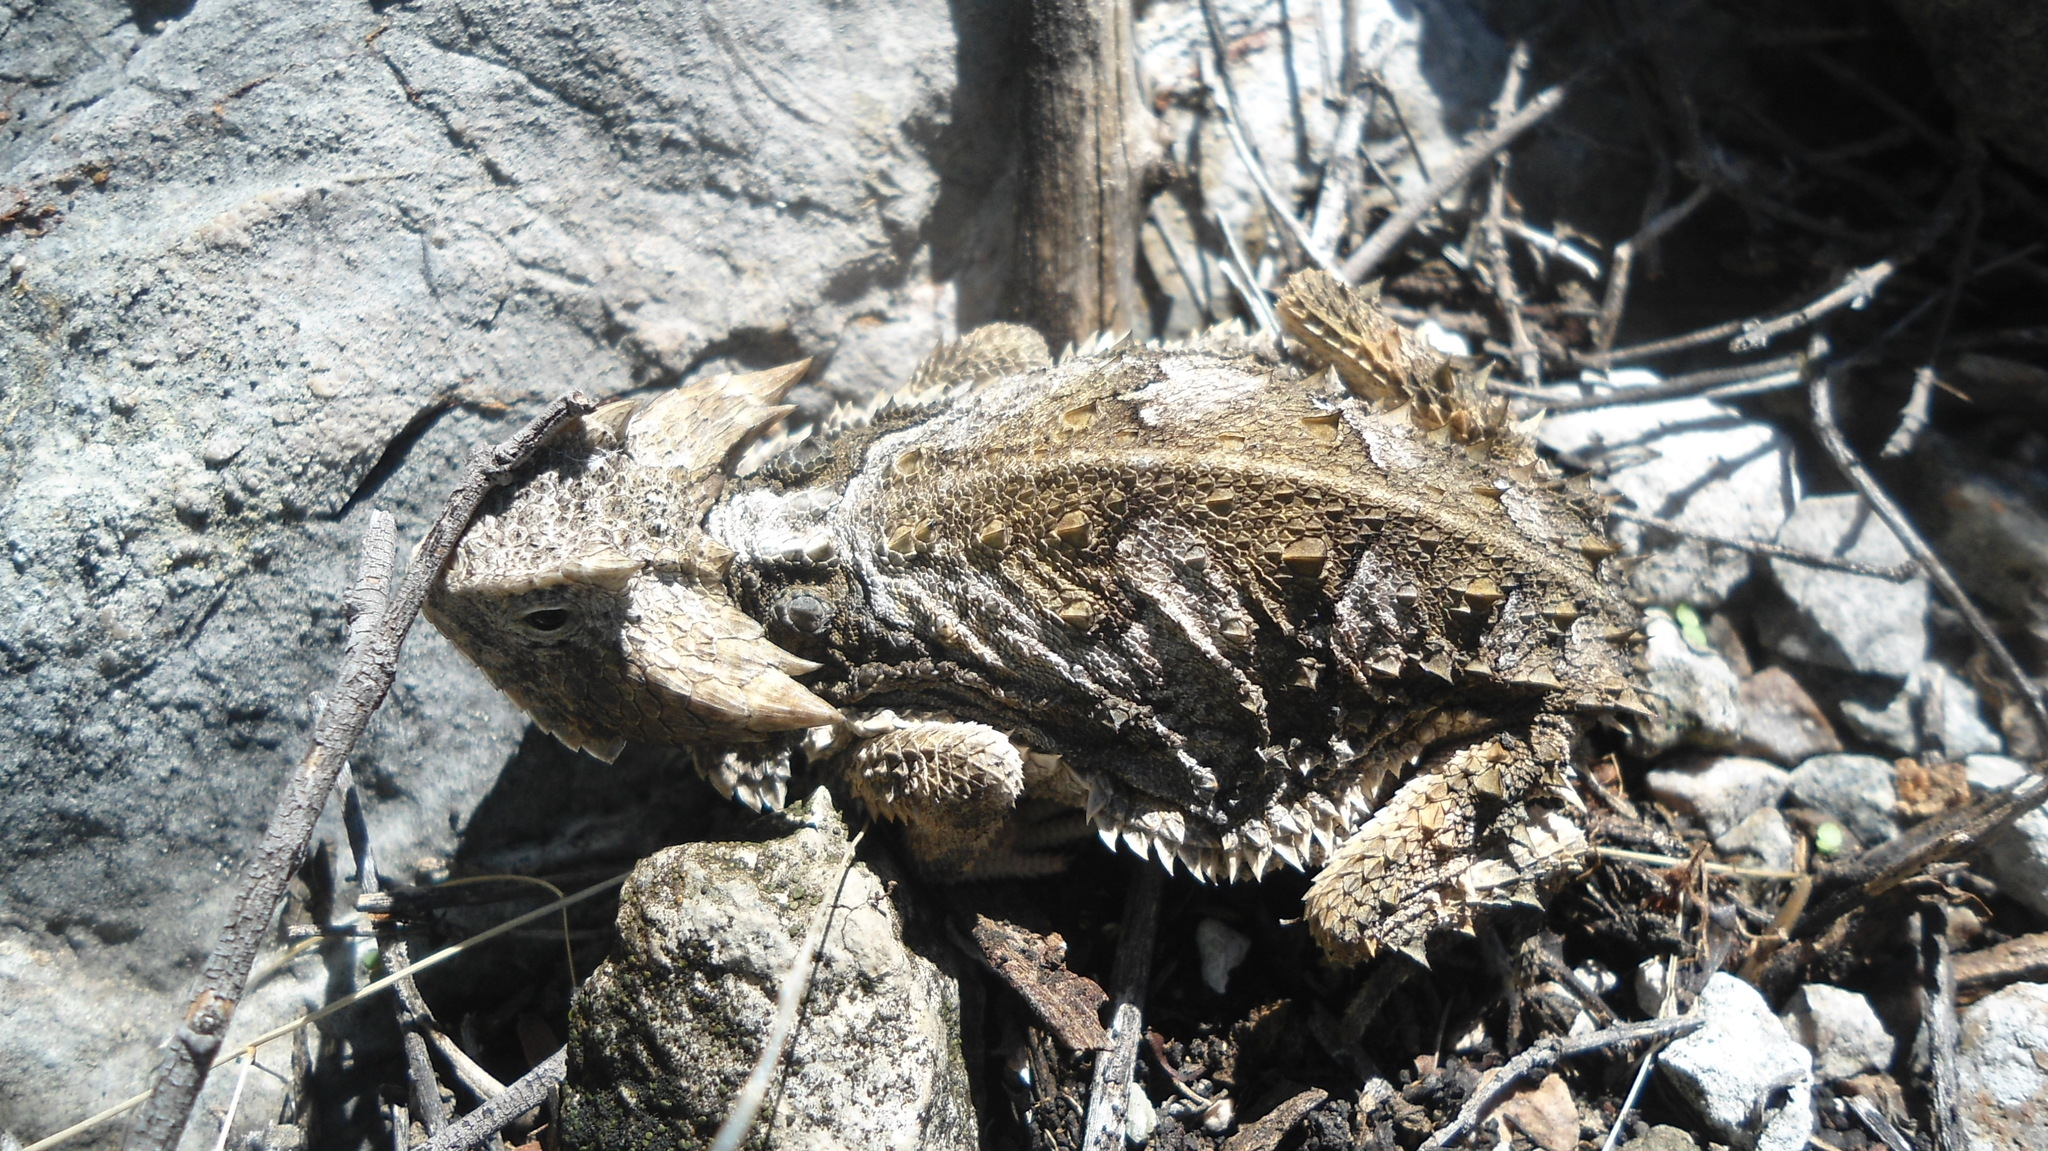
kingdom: Animalia
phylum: Chordata
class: Squamata
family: Phrynosomatidae
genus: Phrynosoma
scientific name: Phrynosoma taurus
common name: Mexican horned lizard
